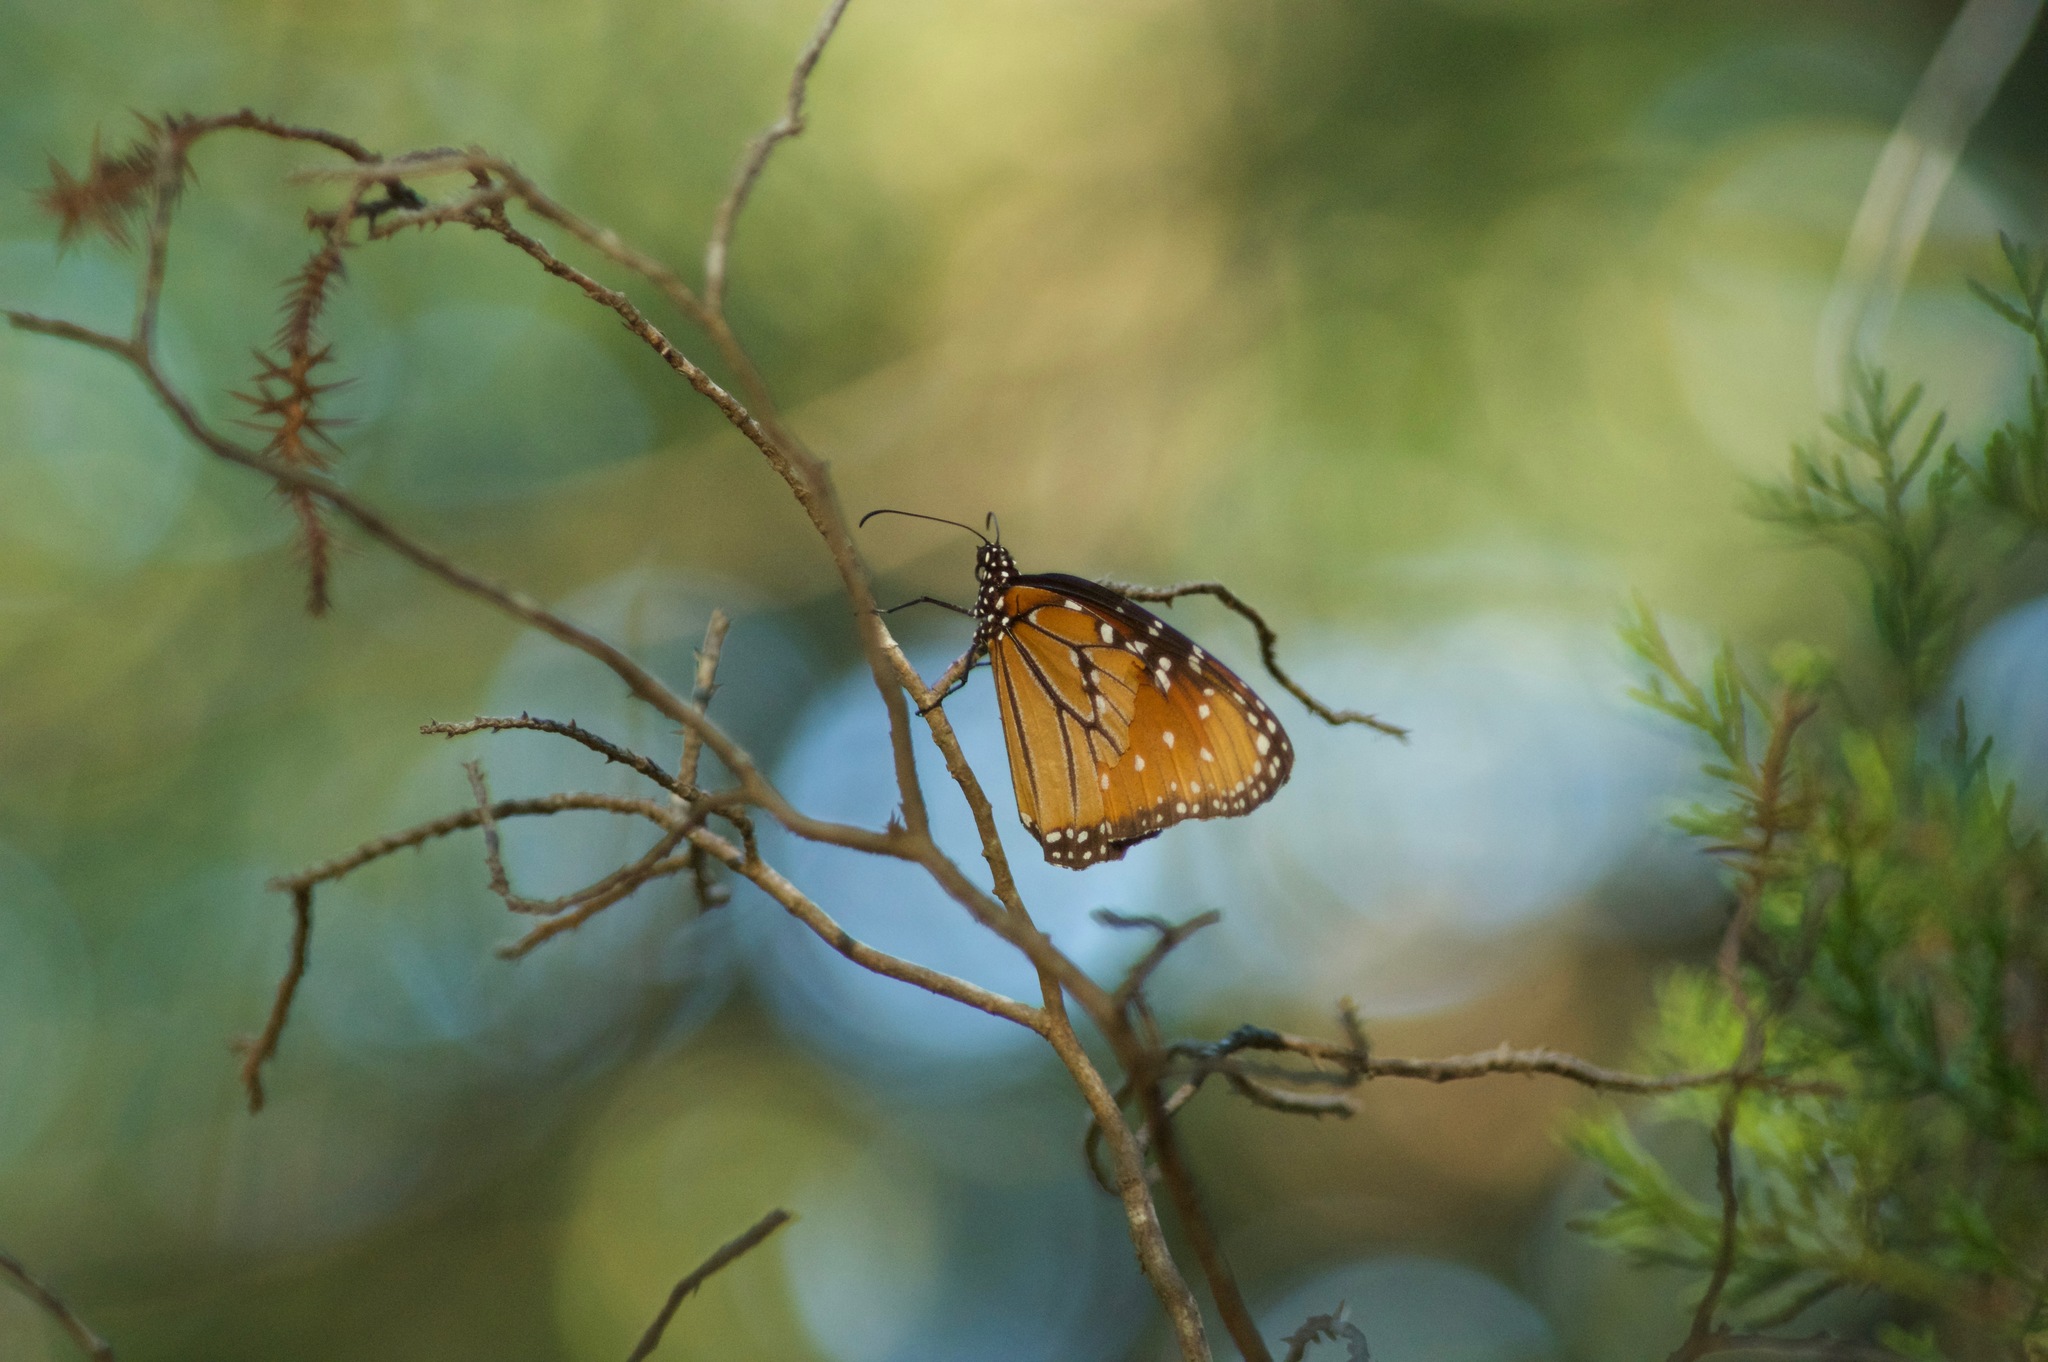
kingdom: Animalia
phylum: Arthropoda
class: Insecta
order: Lepidoptera
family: Nymphalidae
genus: Danaus
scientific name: Danaus gilippus
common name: Queen
